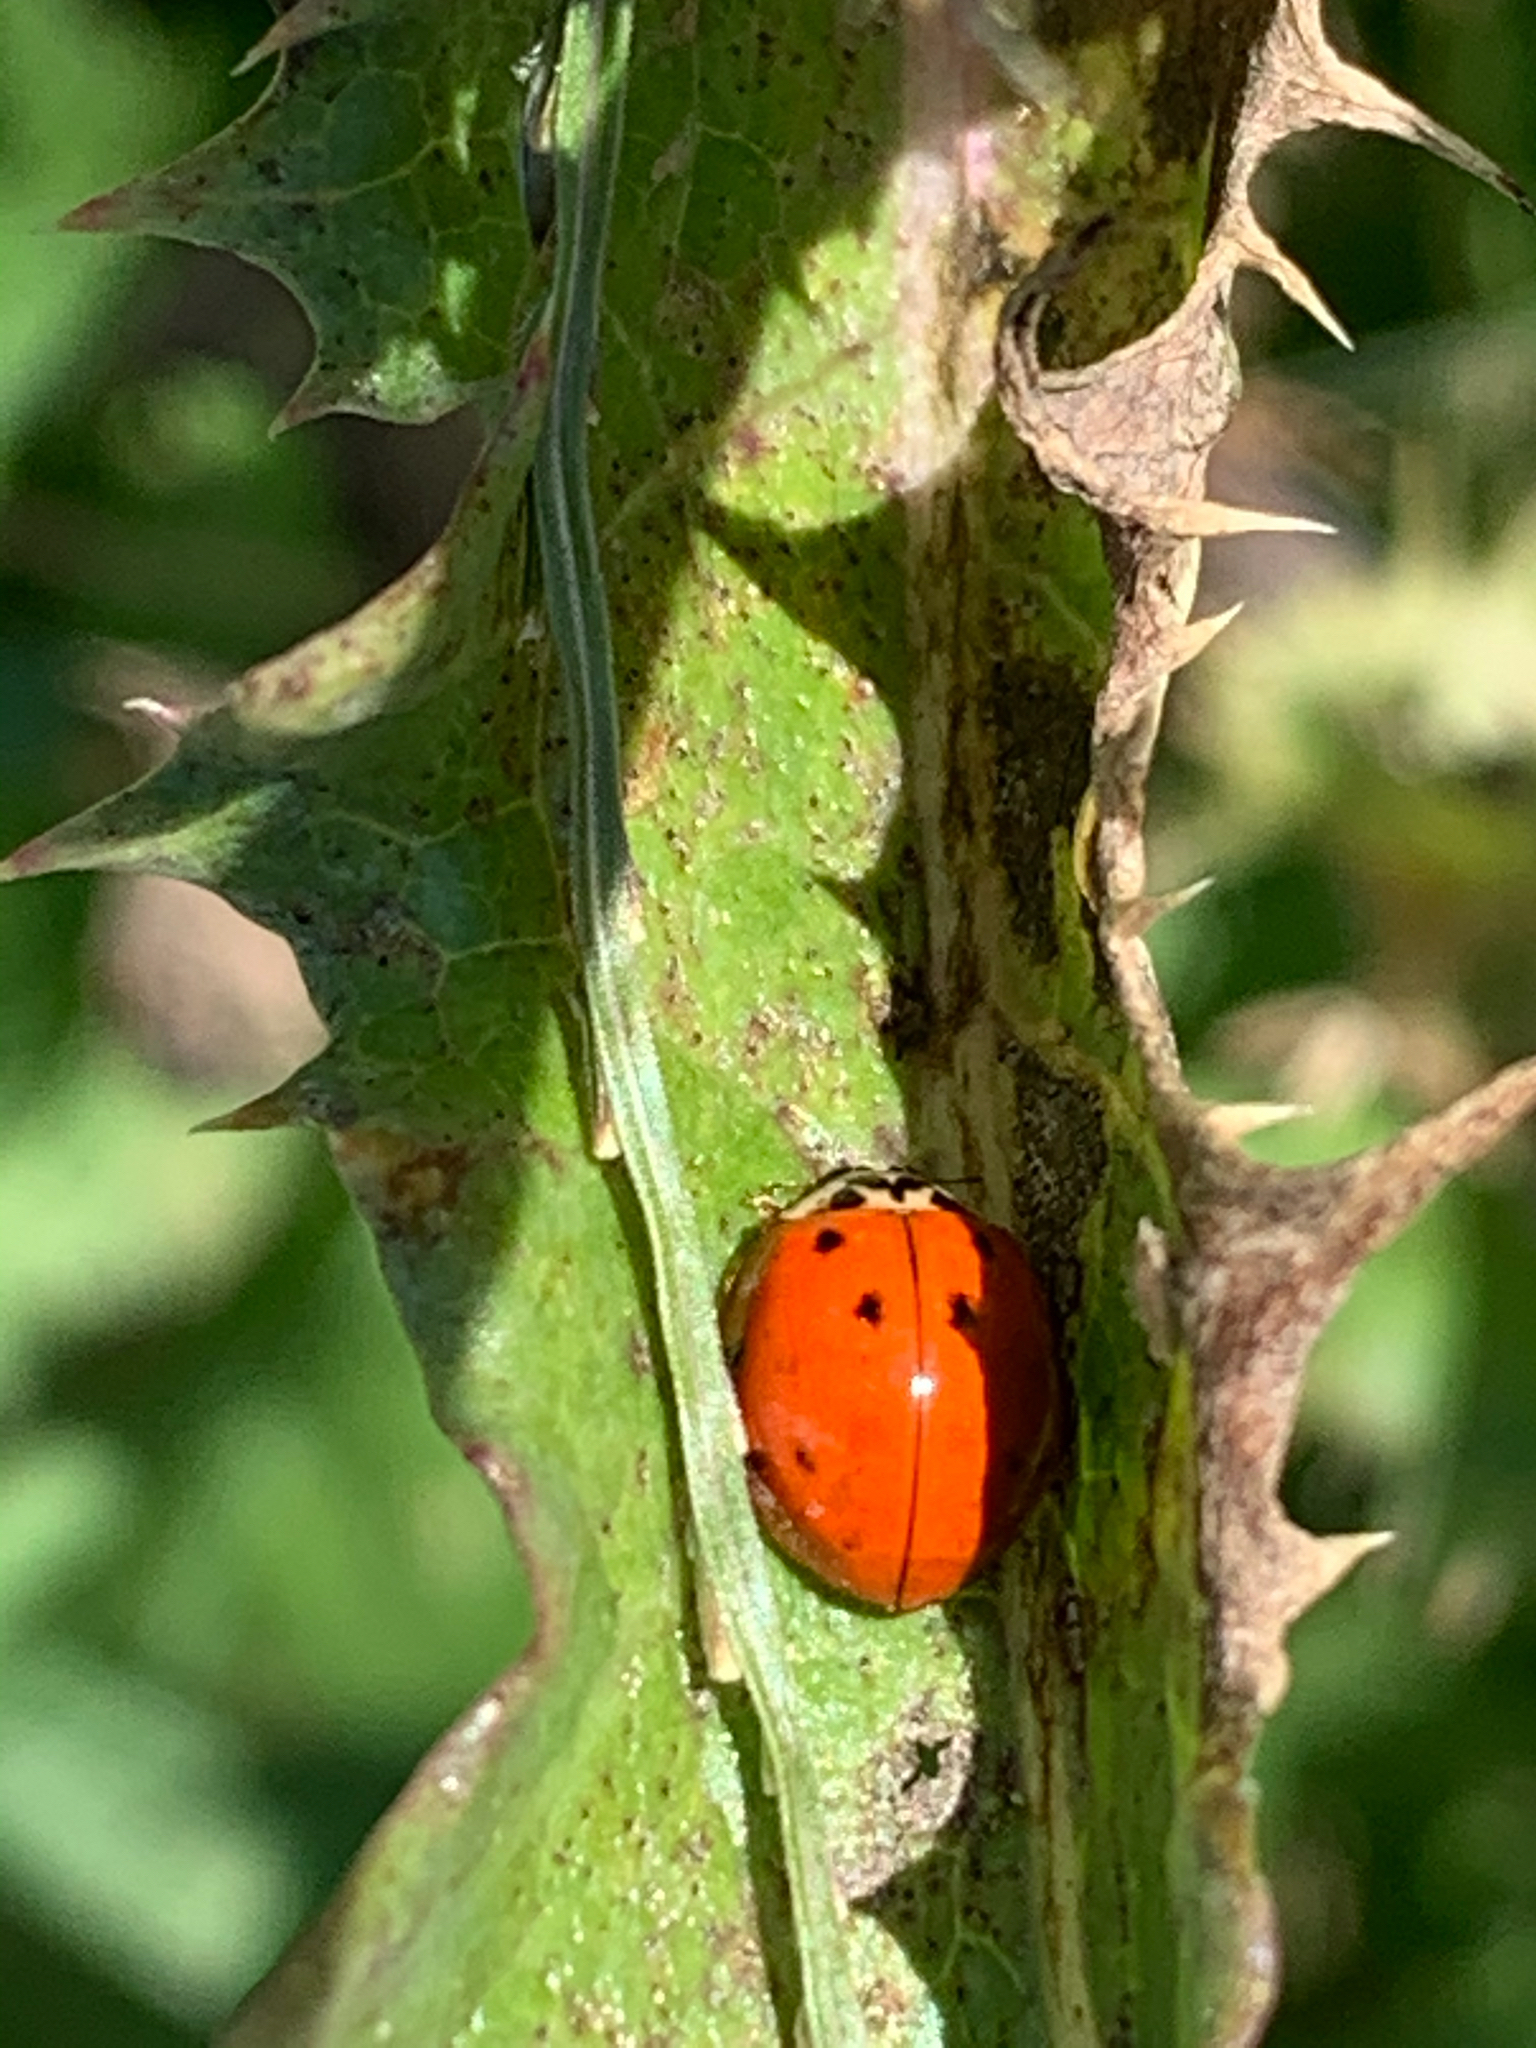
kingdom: Animalia
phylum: Arthropoda
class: Insecta
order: Coleoptera
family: Coccinellidae
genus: Harmonia
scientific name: Harmonia axyridis
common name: Harlequin ladybird
